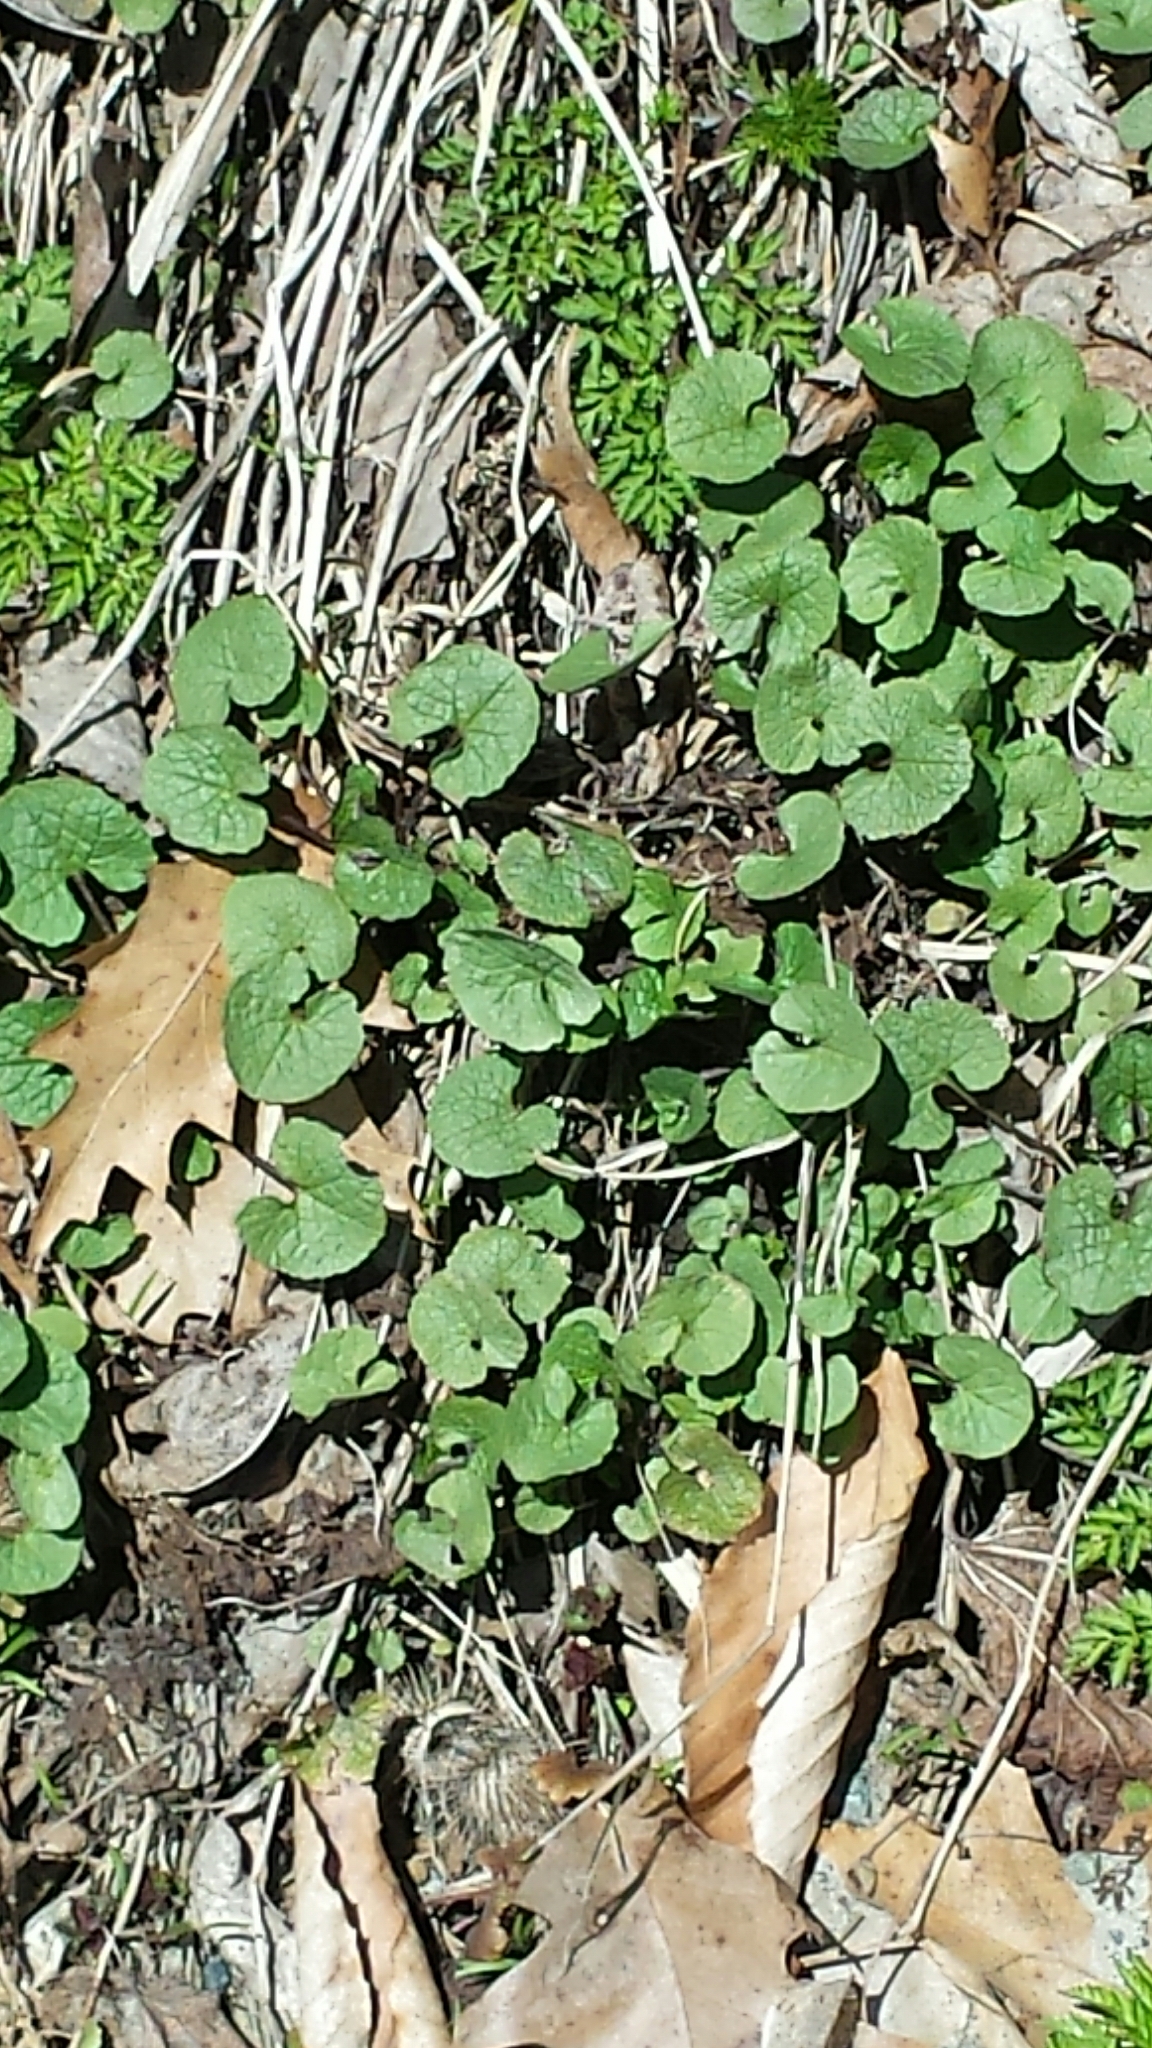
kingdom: Plantae
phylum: Tracheophyta
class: Magnoliopsida
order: Brassicales
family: Brassicaceae
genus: Alliaria
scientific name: Alliaria petiolata
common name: Garlic mustard
